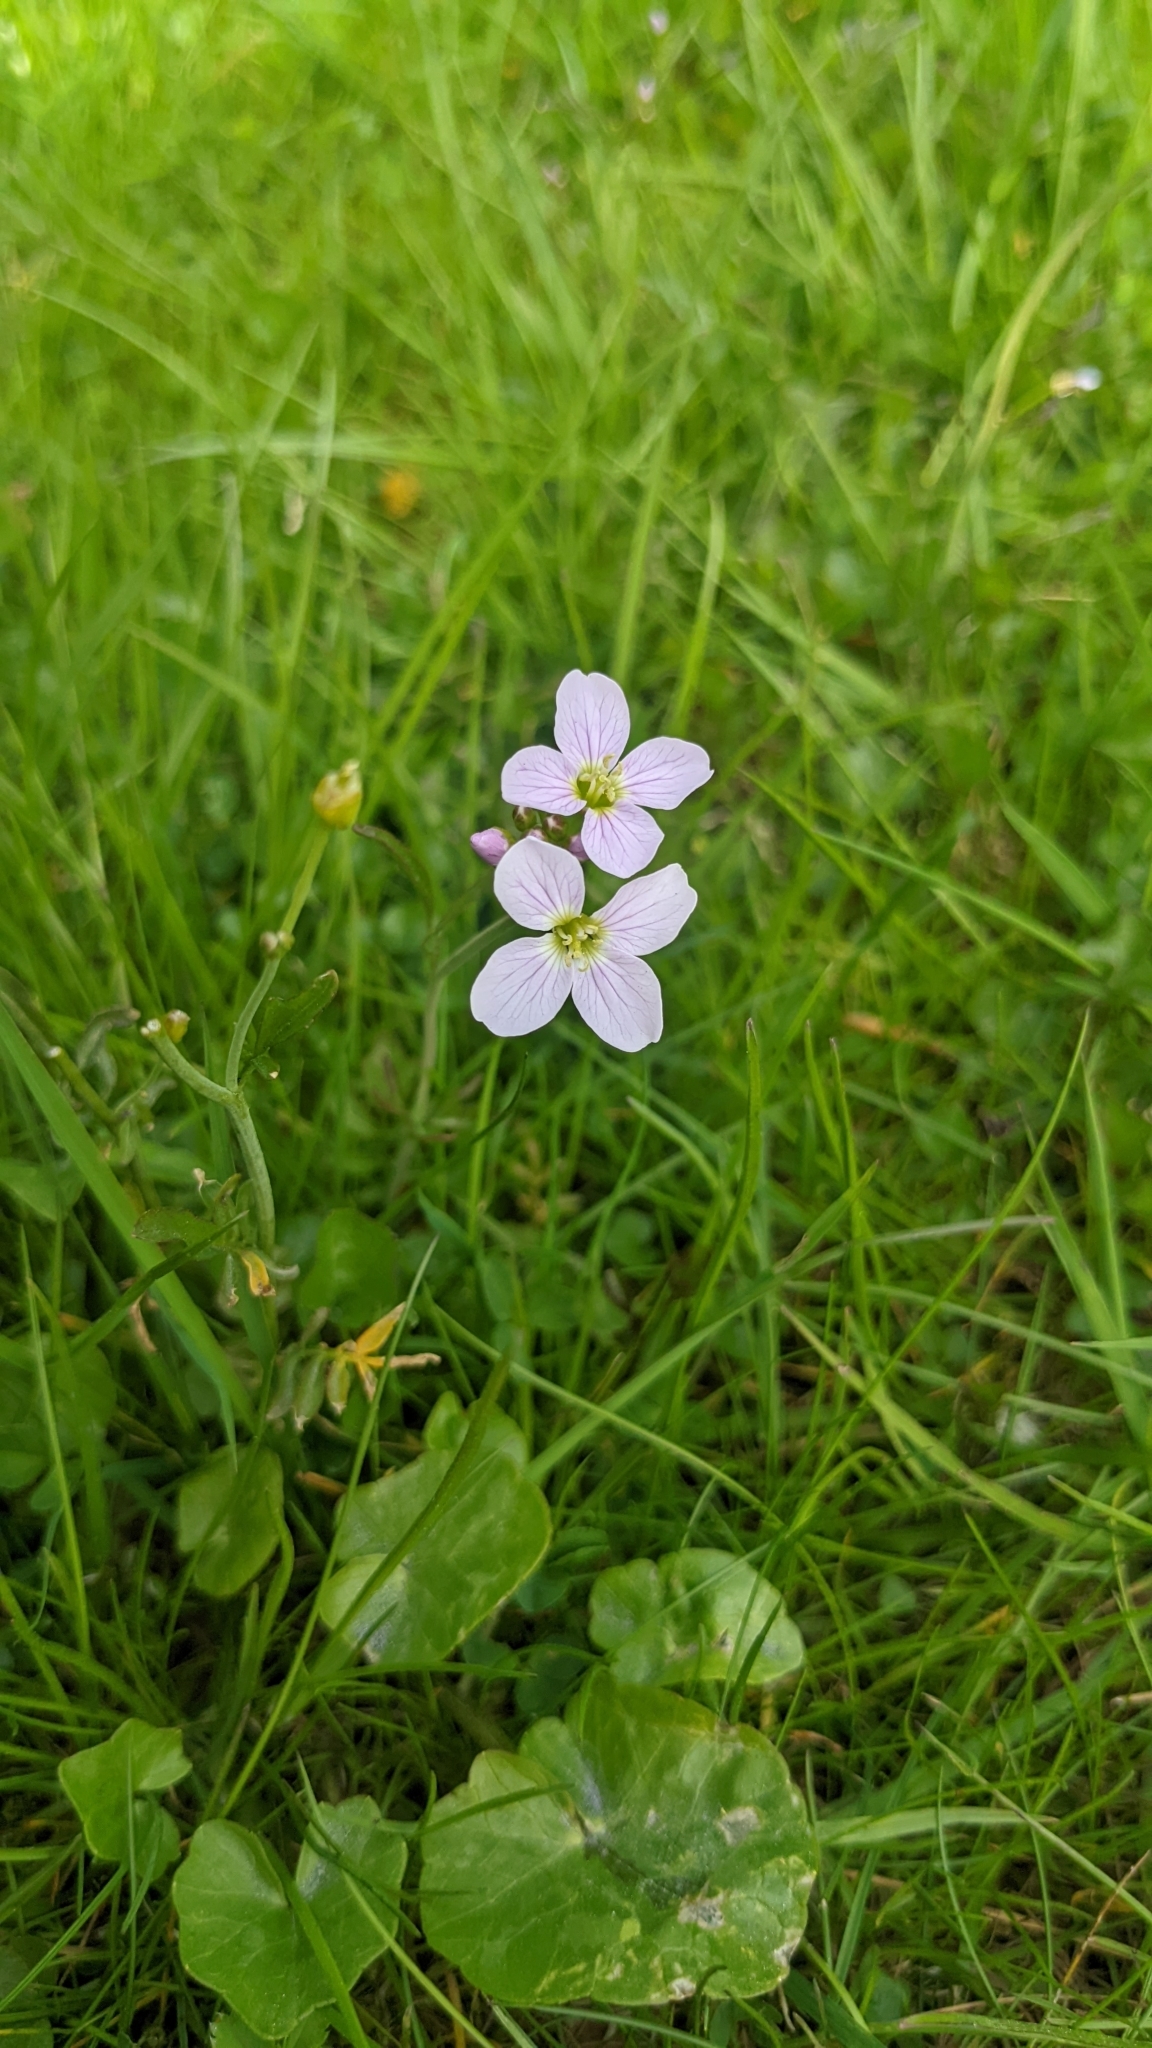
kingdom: Plantae
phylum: Tracheophyta
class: Magnoliopsida
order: Brassicales
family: Brassicaceae
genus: Cardamine
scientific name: Cardamine pratensis
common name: Cuckoo flower
